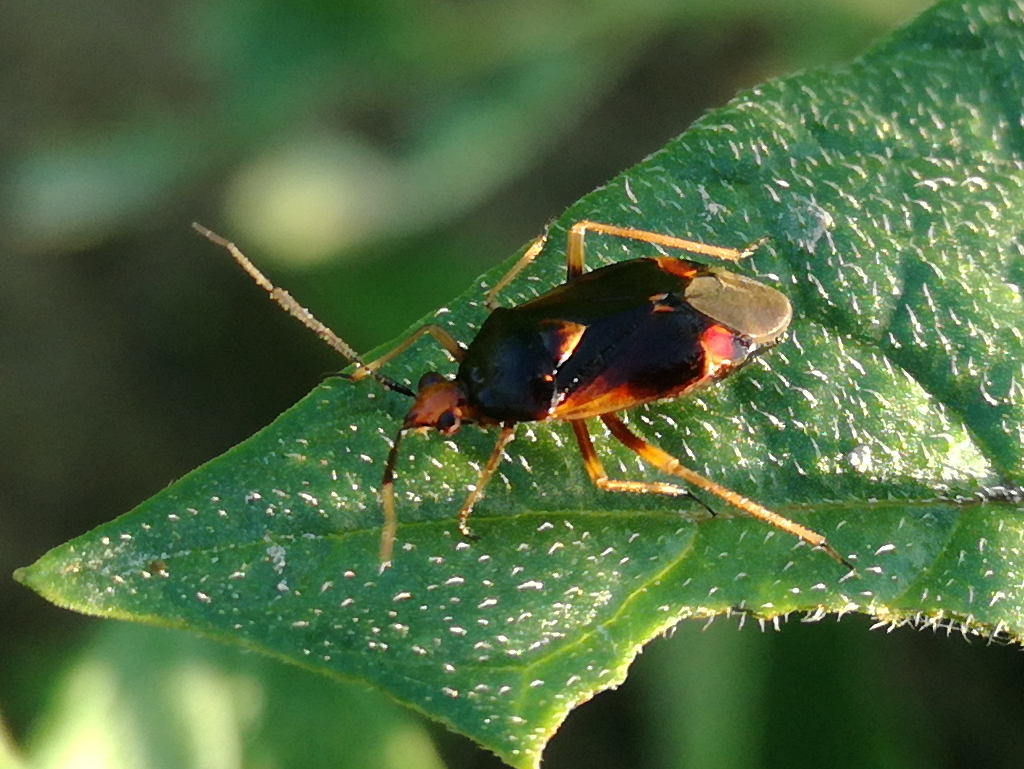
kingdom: Animalia
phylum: Arthropoda
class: Insecta
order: Hemiptera
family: Miridae
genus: Deraeocoris
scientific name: Deraeocoris ruber
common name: Plant bug
